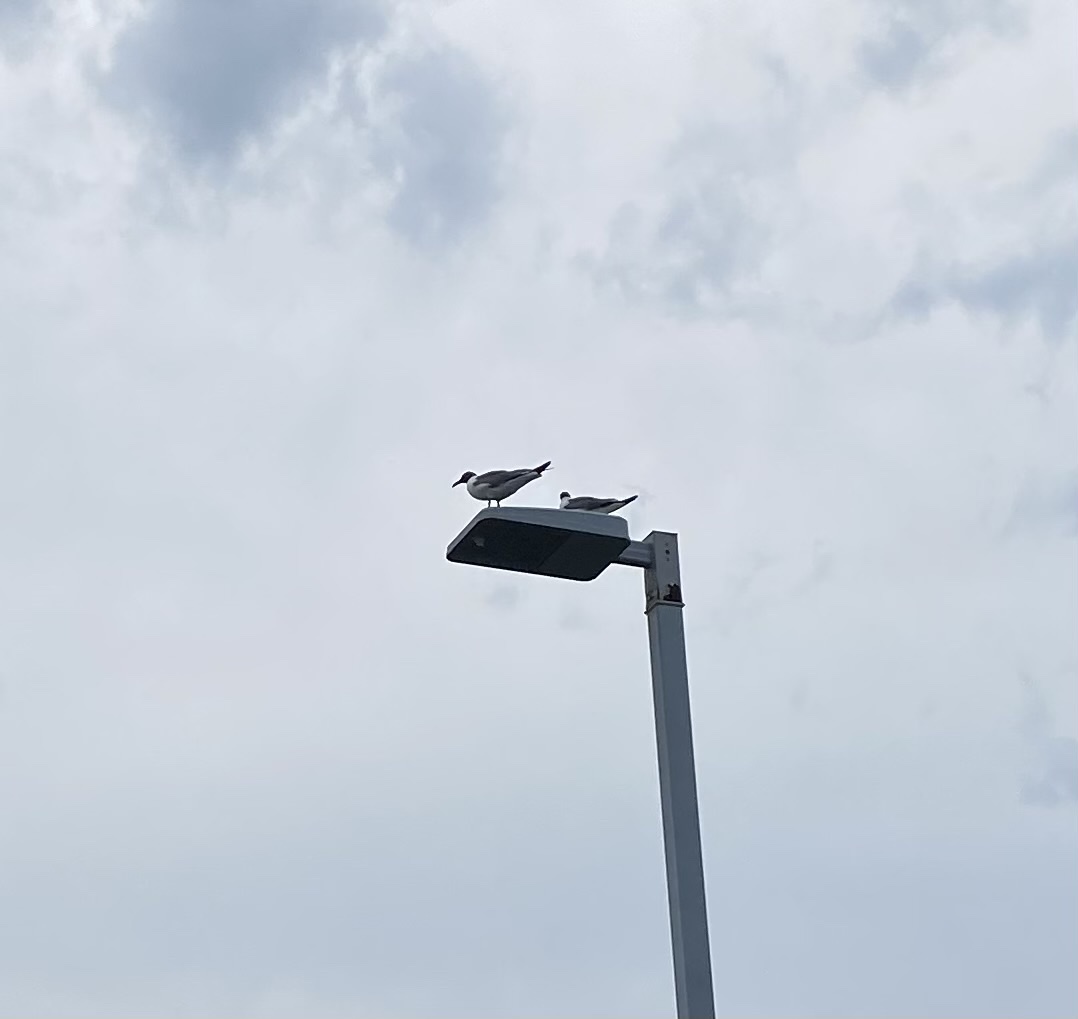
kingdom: Animalia
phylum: Chordata
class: Aves
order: Charadriiformes
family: Laridae
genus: Leucophaeus
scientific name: Leucophaeus atricilla
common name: Laughing gull
